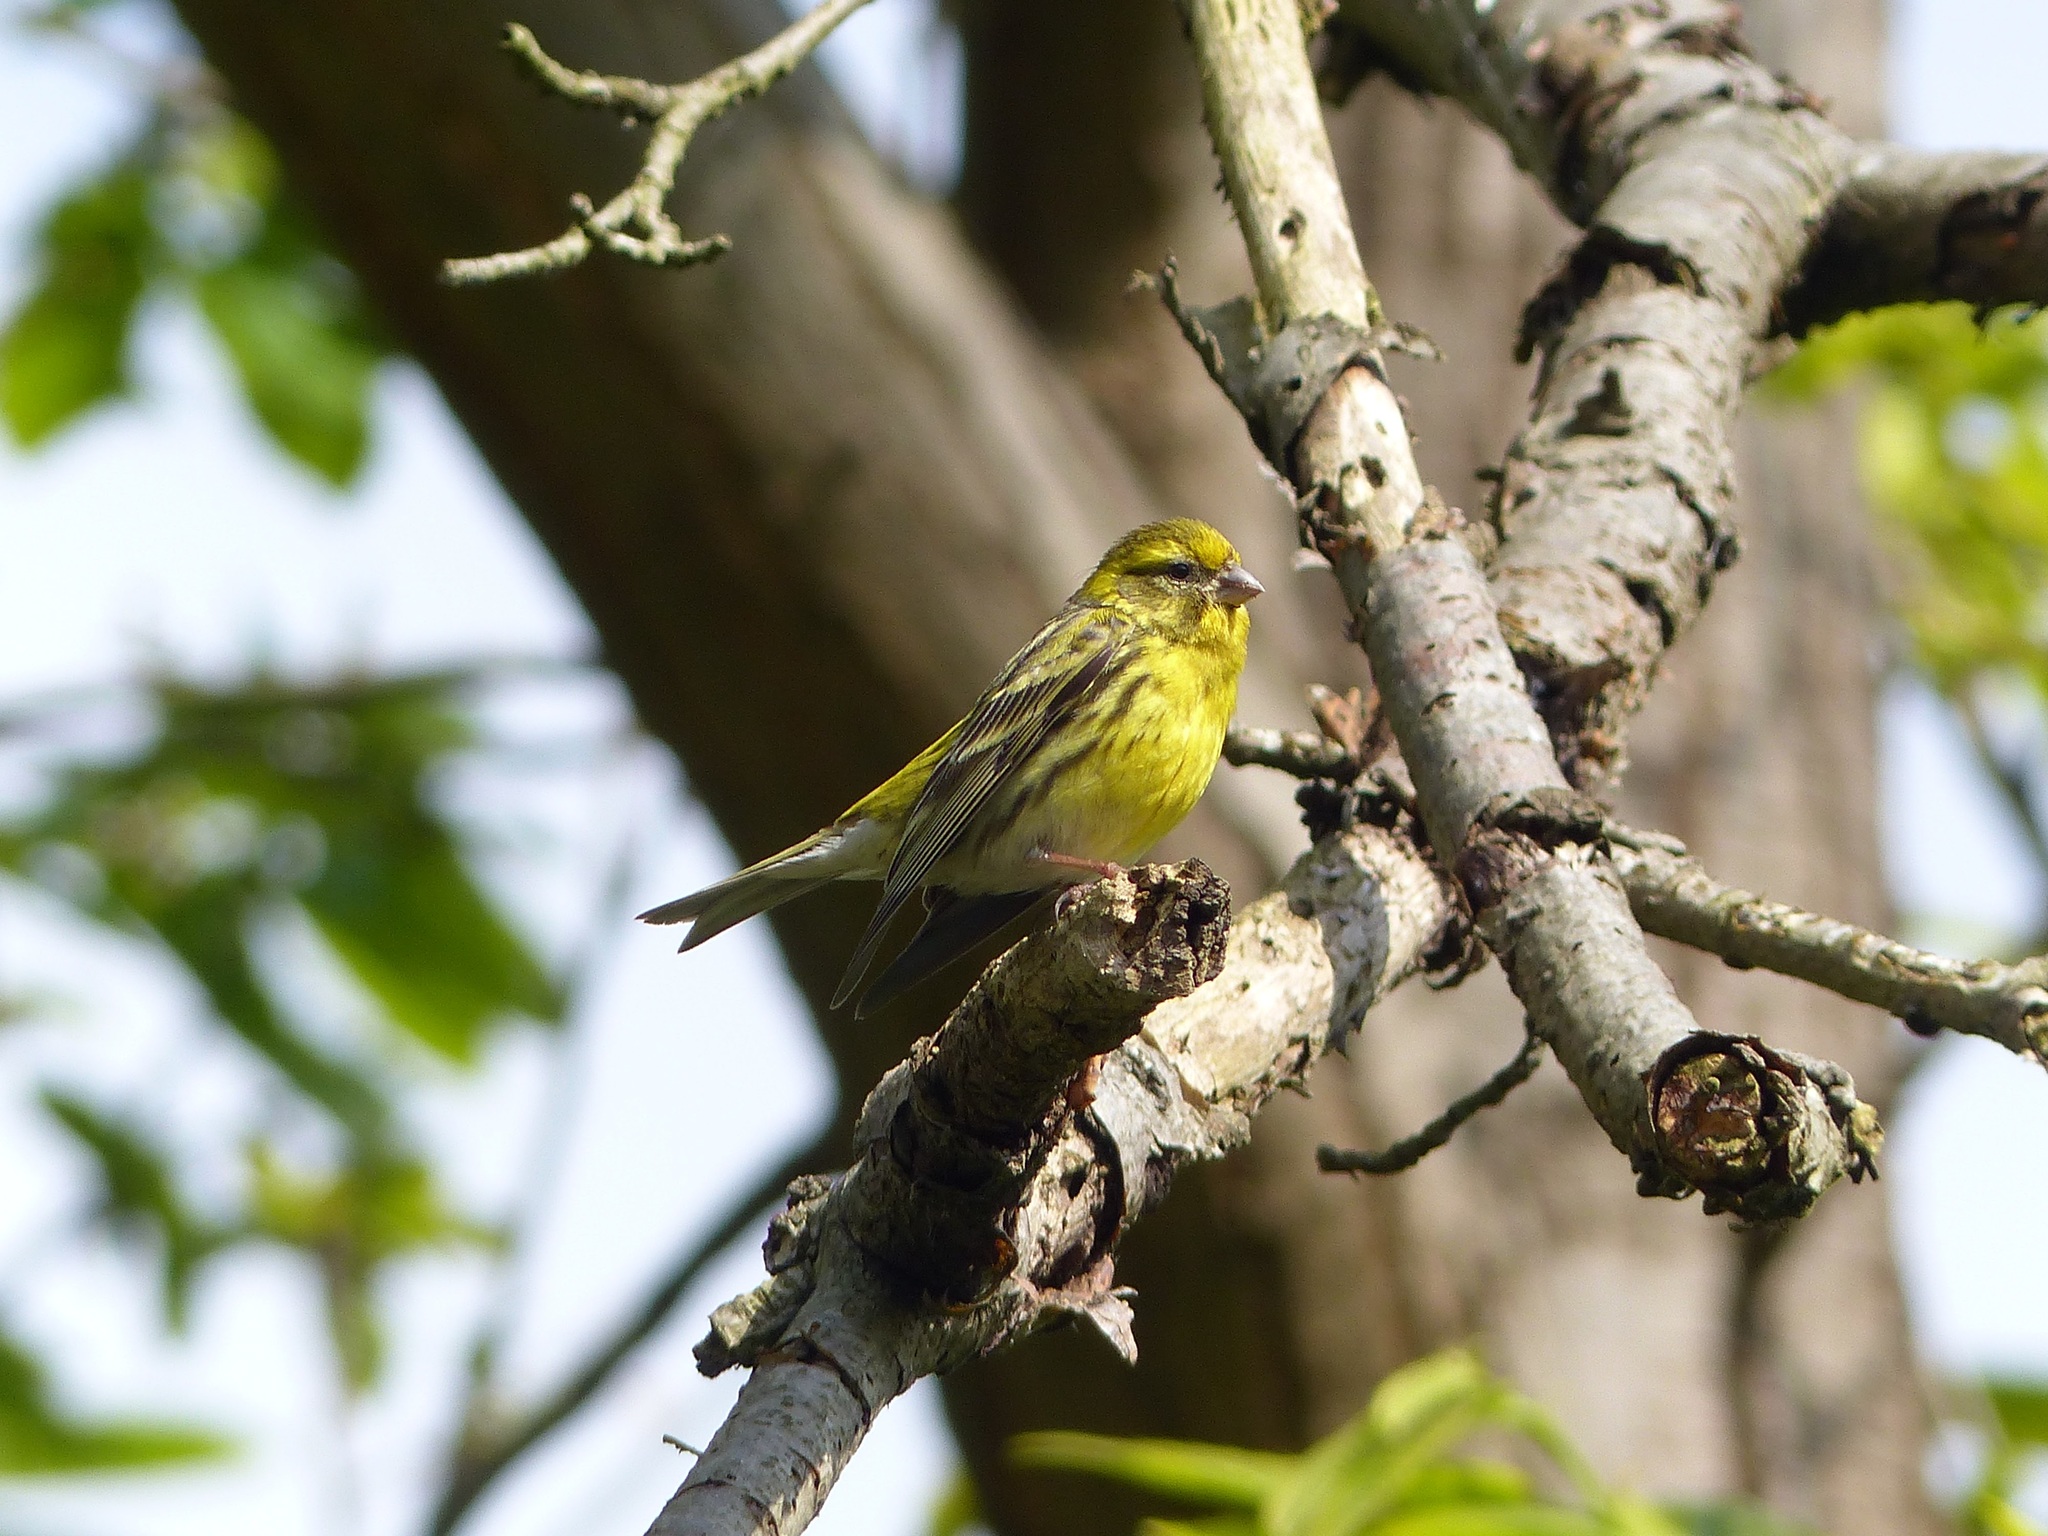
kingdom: Animalia
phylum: Chordata
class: Aves
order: Passeriformes
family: Fringillidae
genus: Serinus
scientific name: Serinus serinus
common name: European serin
